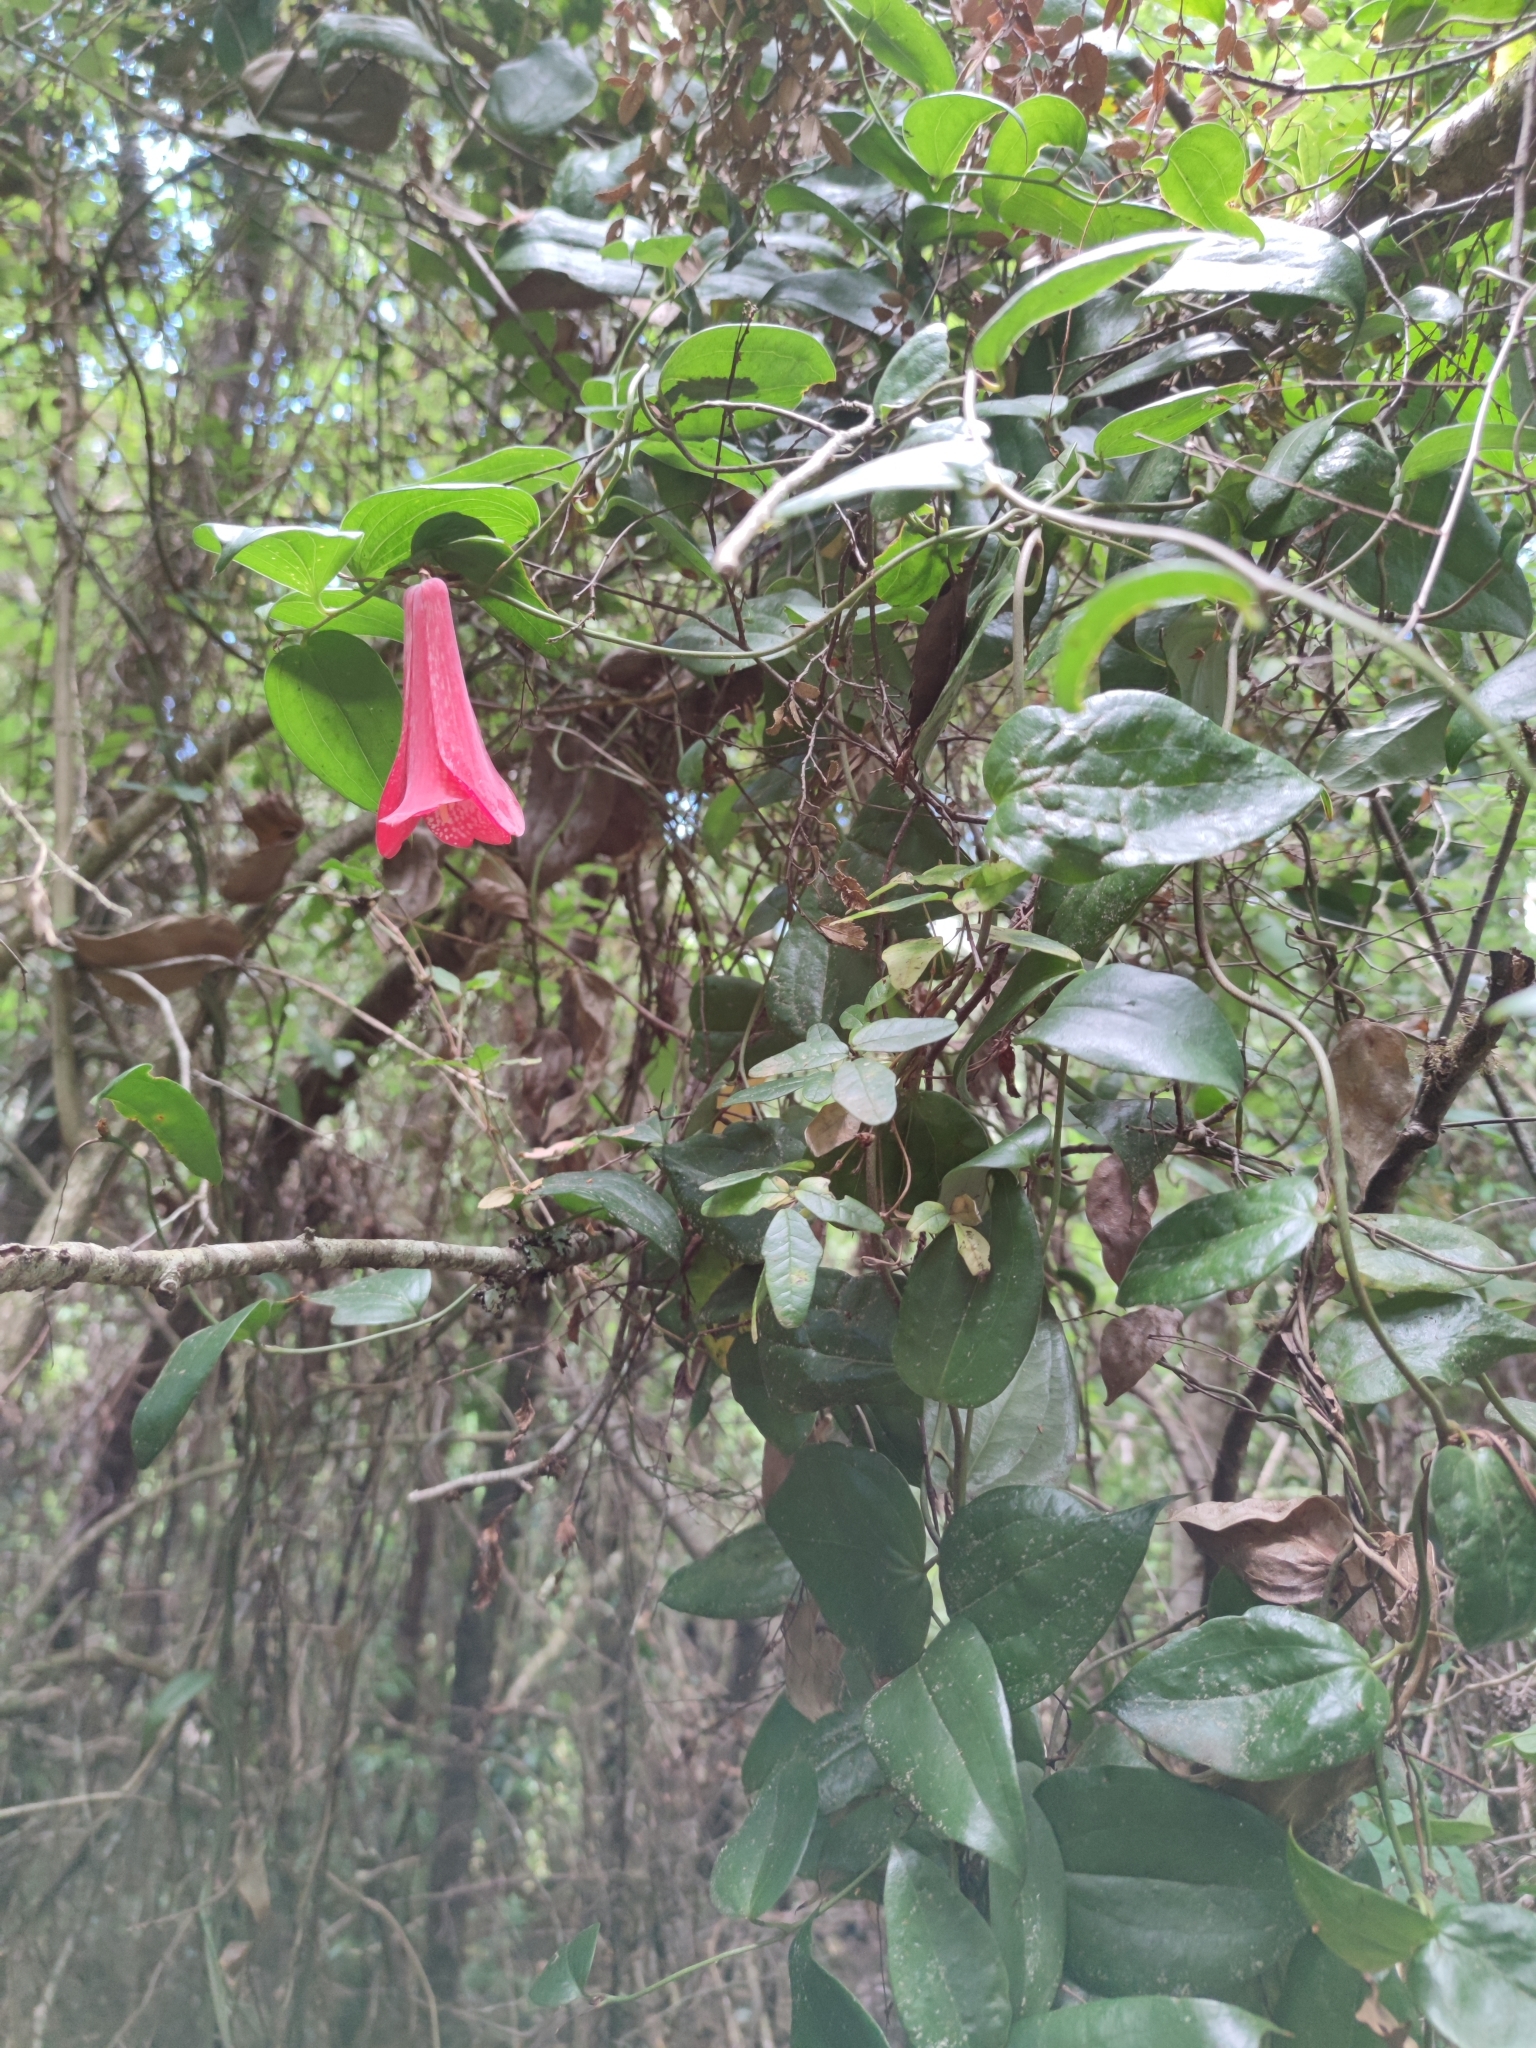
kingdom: Plantae
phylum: Tracheophyta
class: Liliopsida
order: Liliales
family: Philesiaceae
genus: Lapageria
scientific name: Lapageria rosea
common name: Chilean-bellflower
